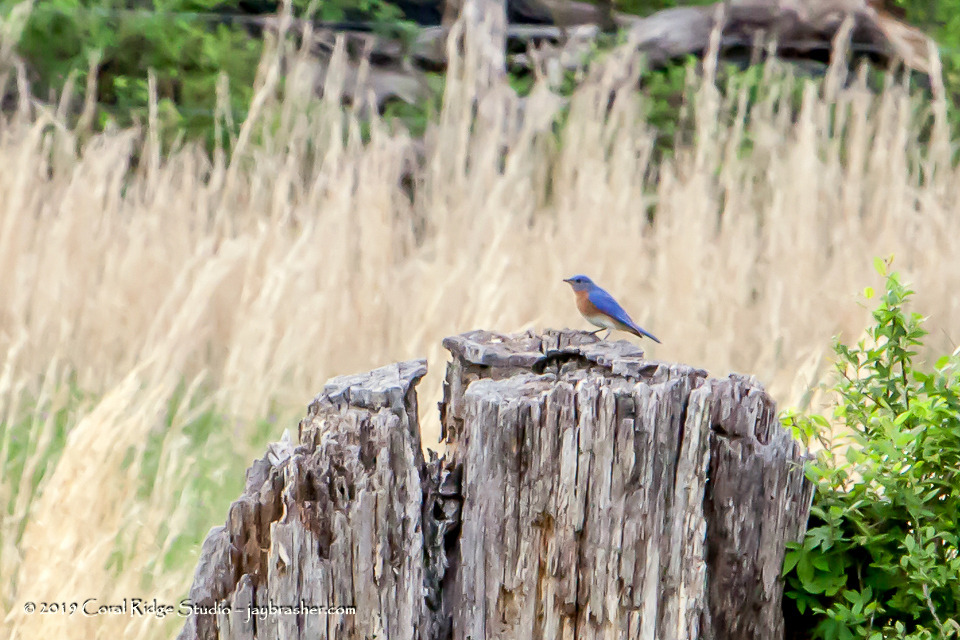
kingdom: Animalia
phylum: Chordata
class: Aves
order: Passeriformes
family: Turdidae
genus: Sialia
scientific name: Sialia sialis
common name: Eastern bluebird
